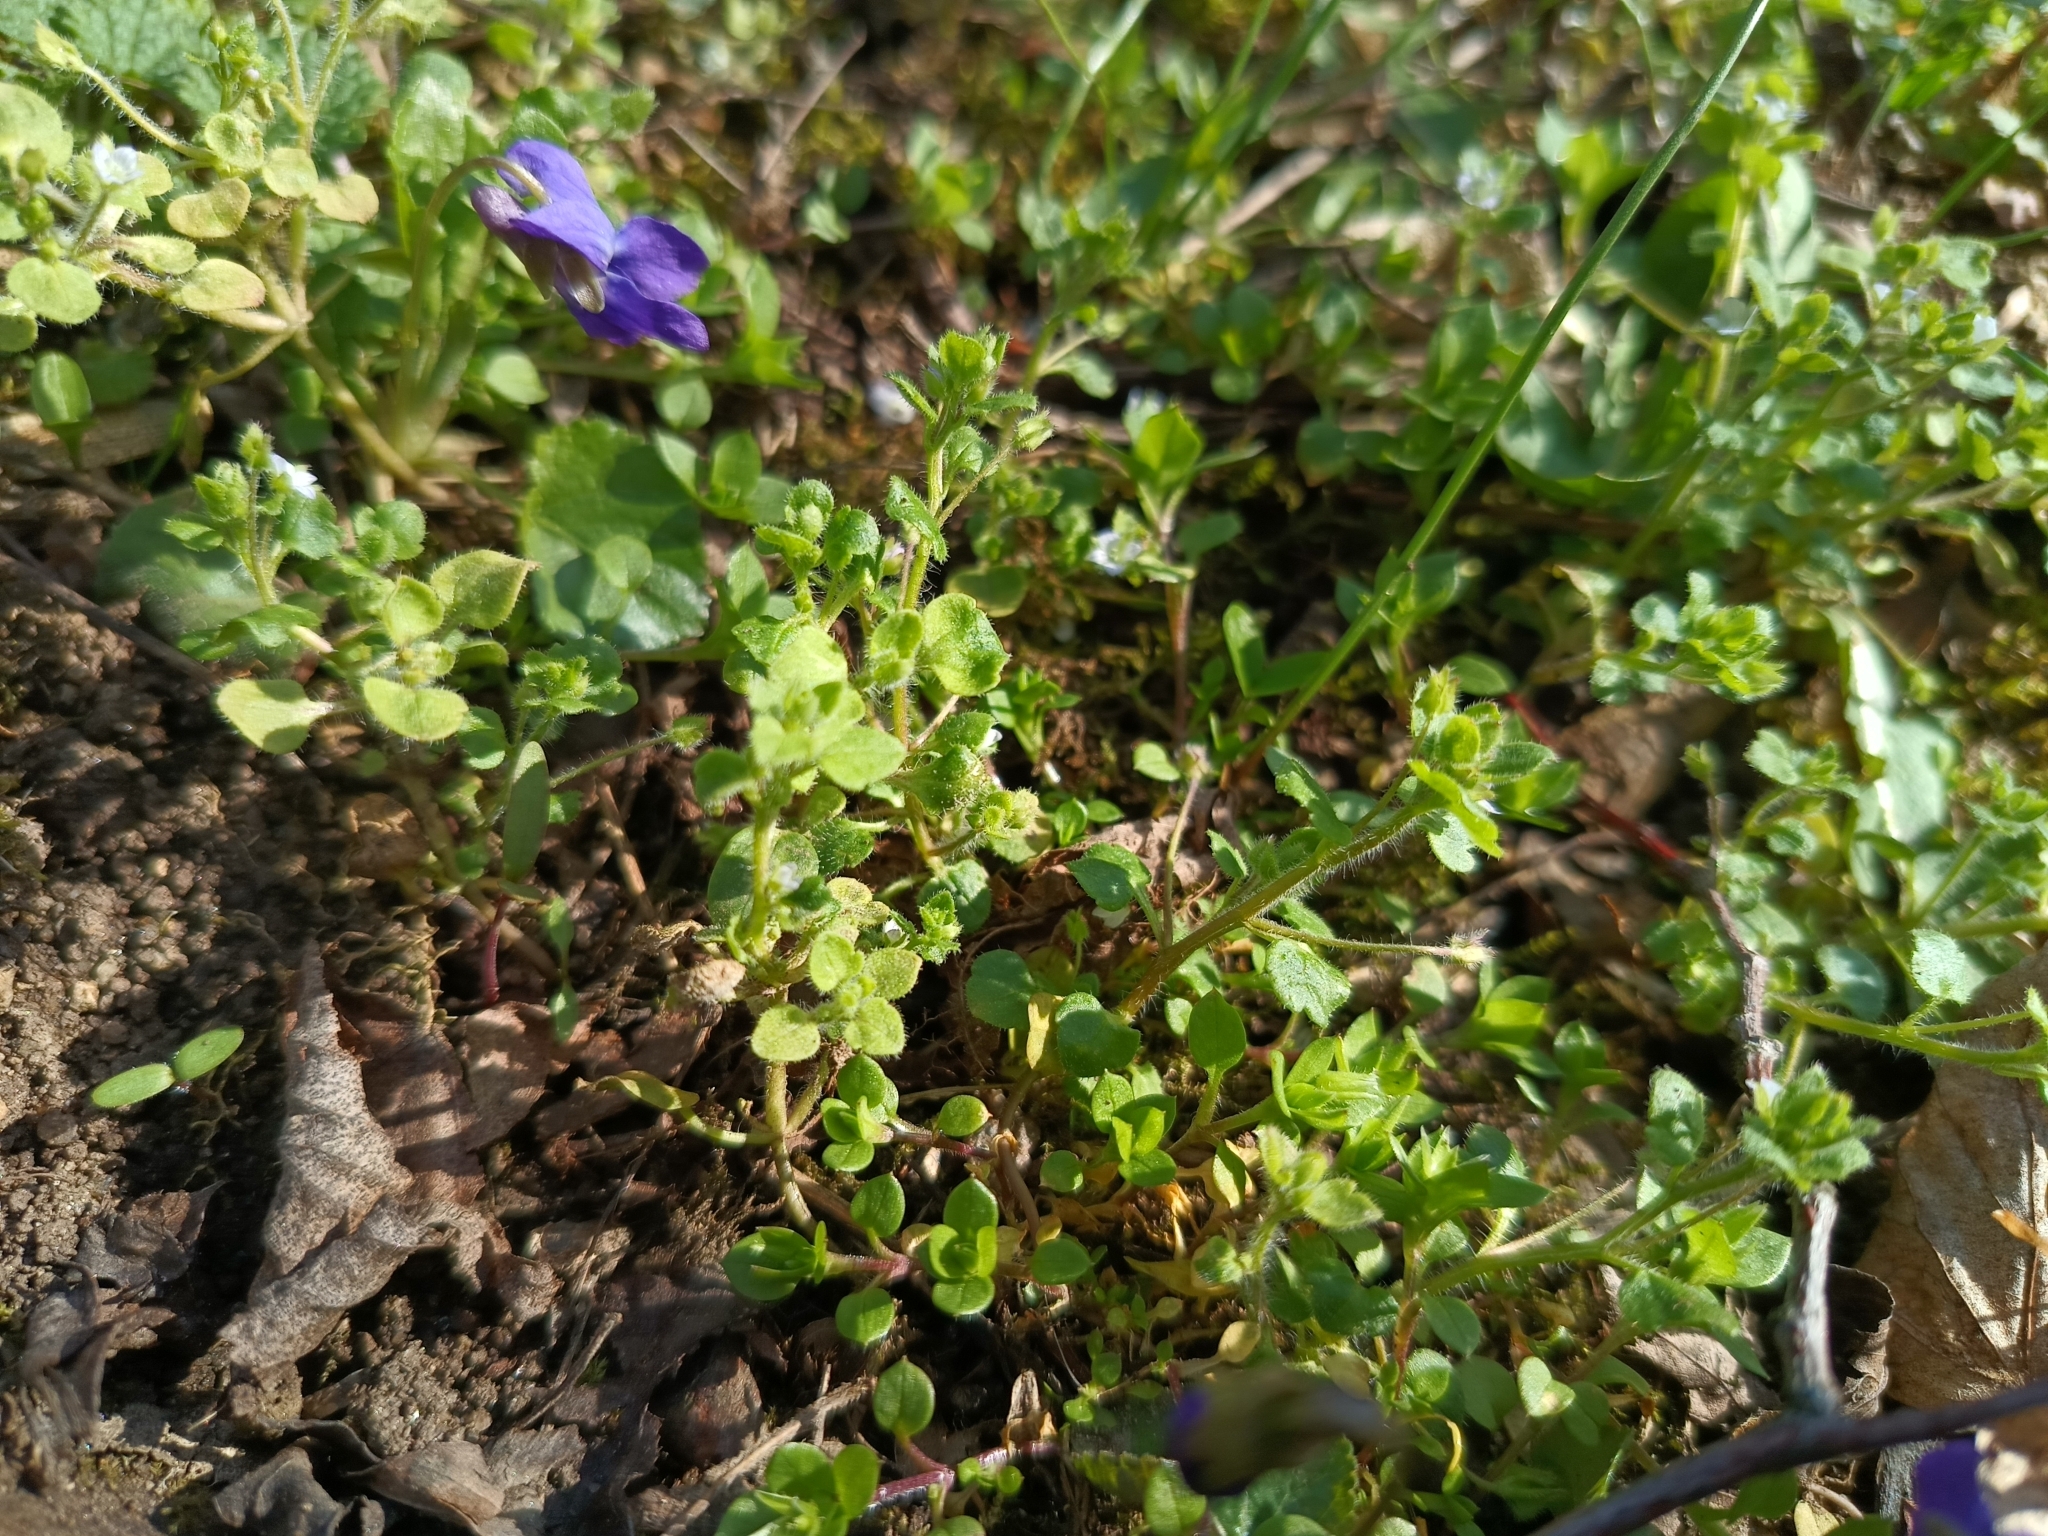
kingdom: Plantae
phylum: Tracheophyta
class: Magnoliopsida
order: Lamiales
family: Plantaginaceae
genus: Veronica
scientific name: Veronica sublobata
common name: False ivy-leaved speedwell
